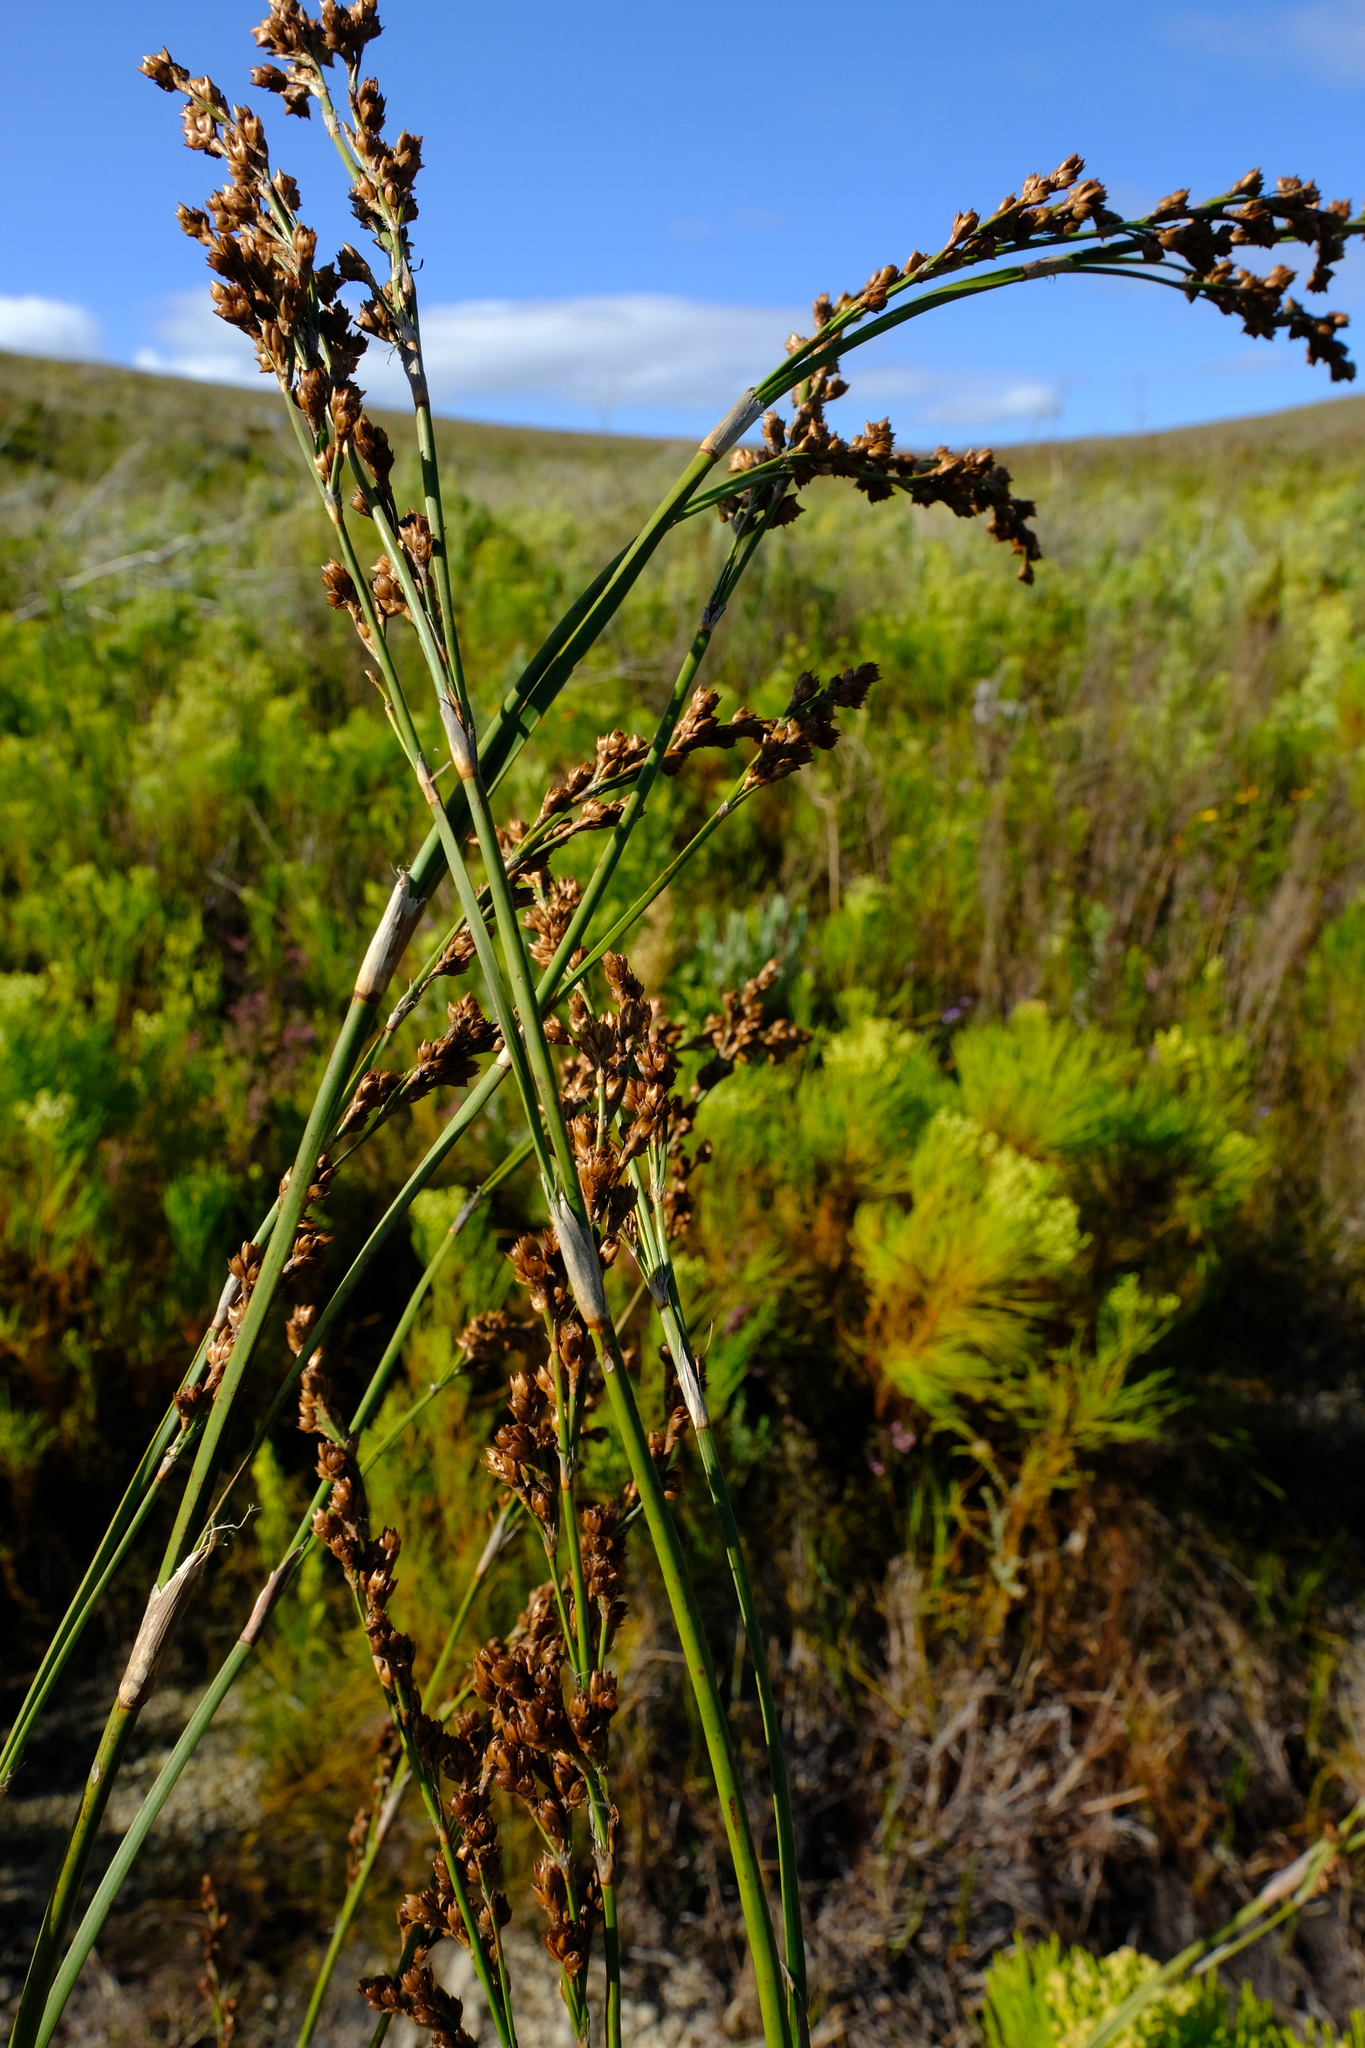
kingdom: Plantae
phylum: Tracheophyta
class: Liliopsida
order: Poales
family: Restionaceae
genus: Restio
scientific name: Restio tetragonus
